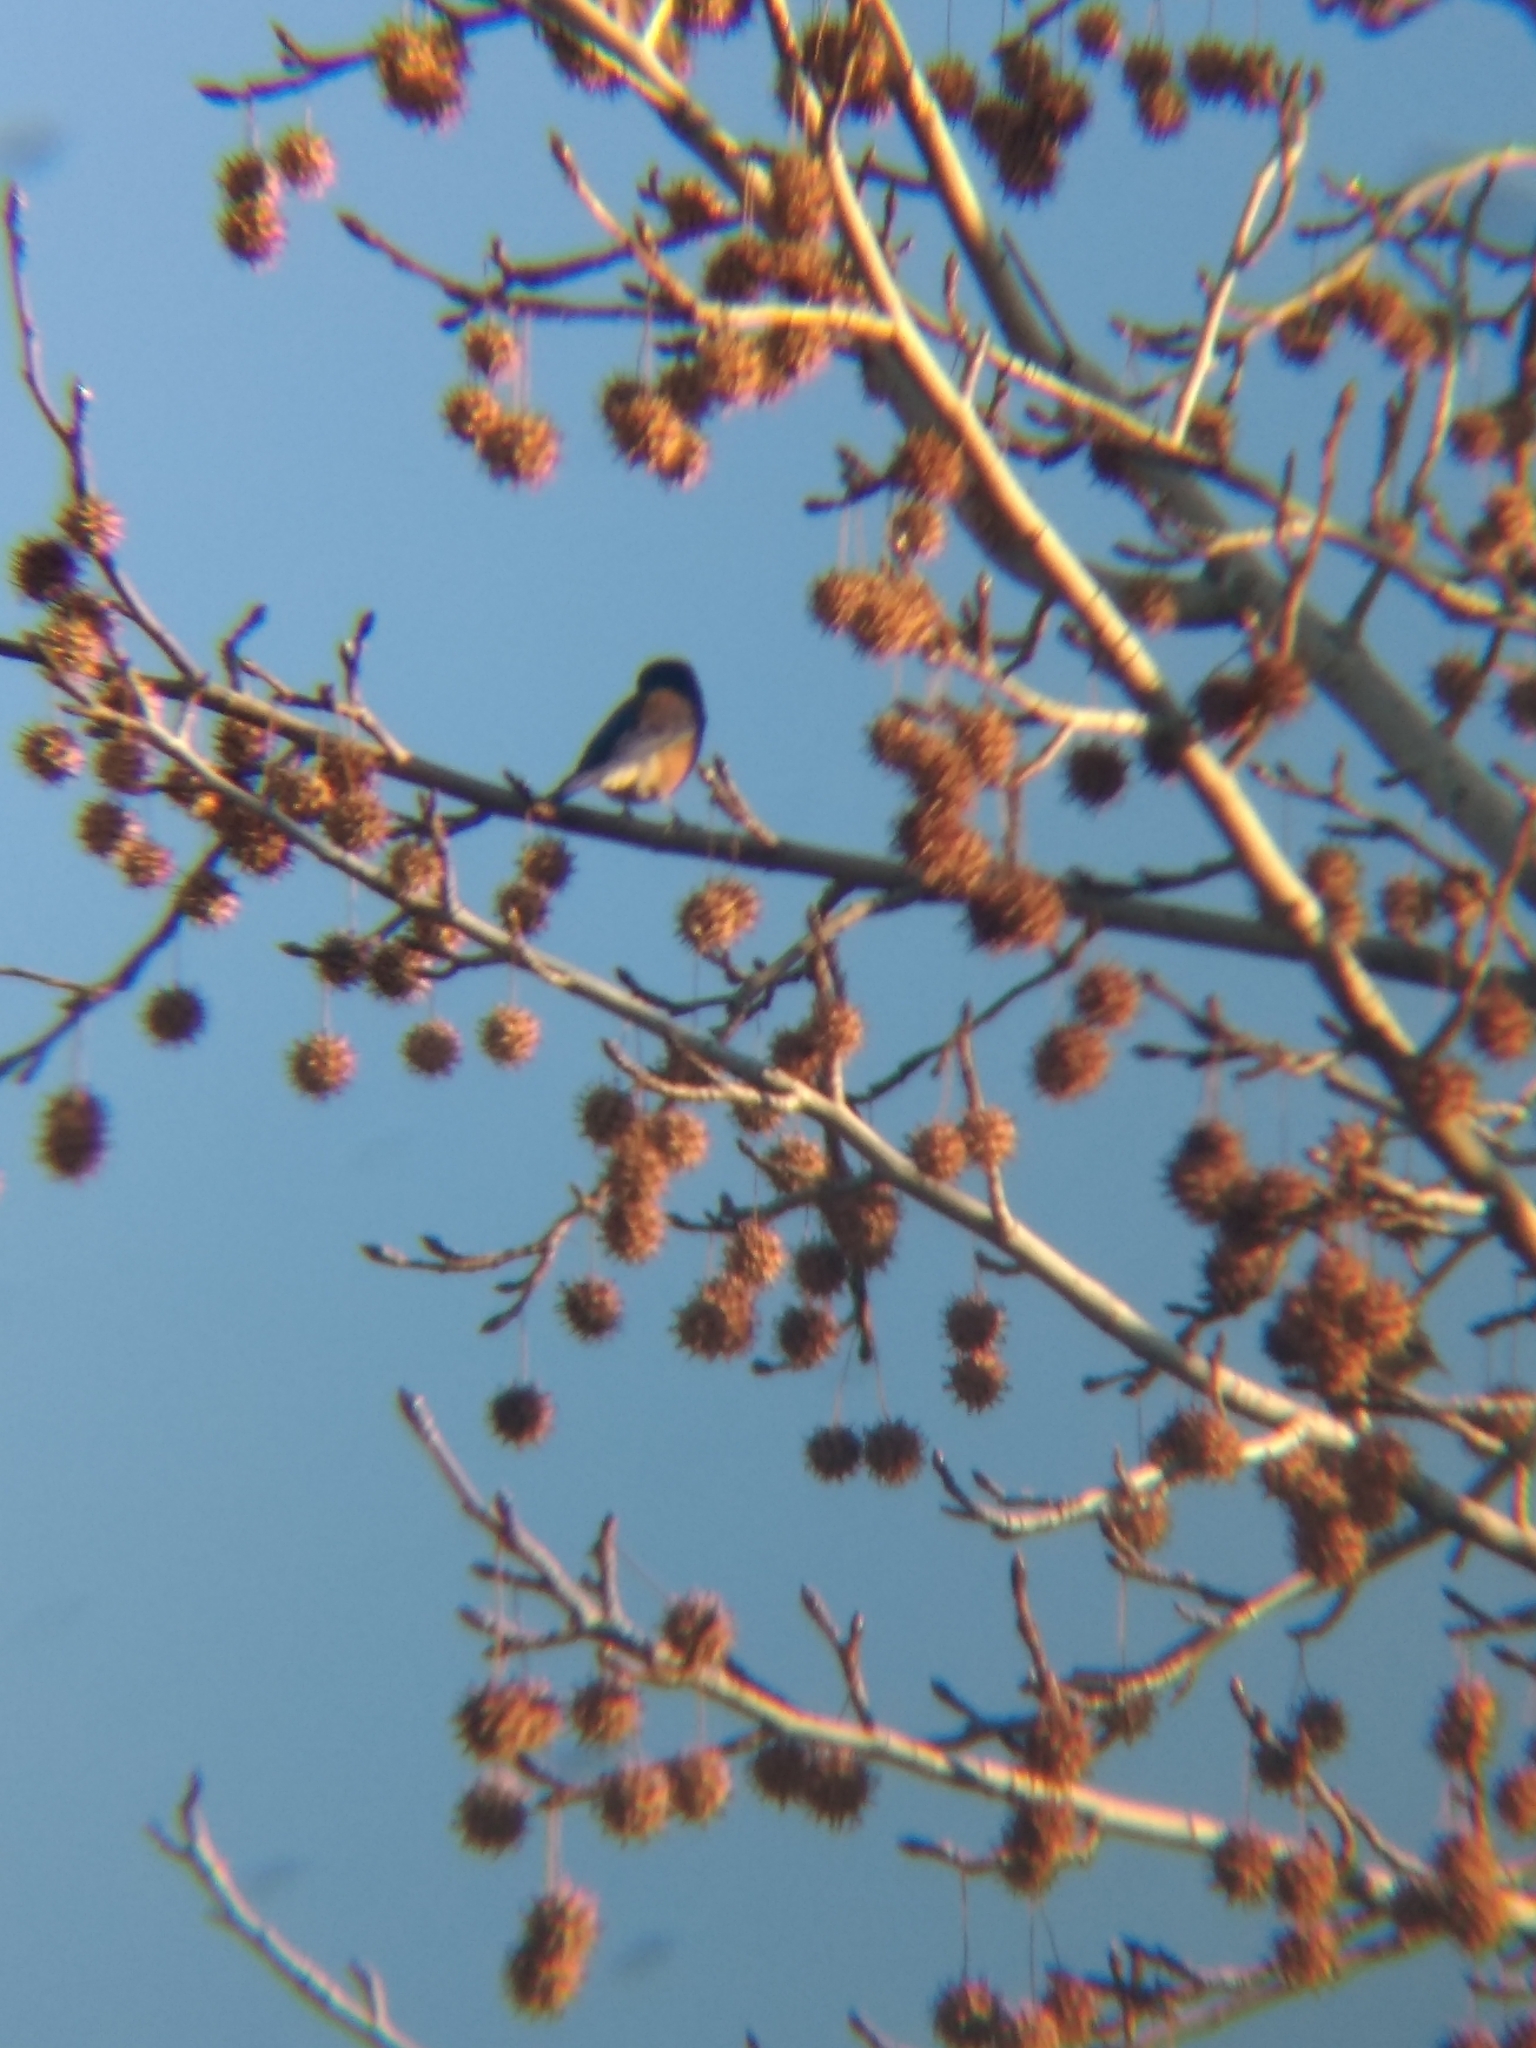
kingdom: Animalia
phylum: Chordata
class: Aves
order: Passeriformes
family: Turdidae
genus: Sialia
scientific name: Sialia mexicana
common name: Western bluebird
